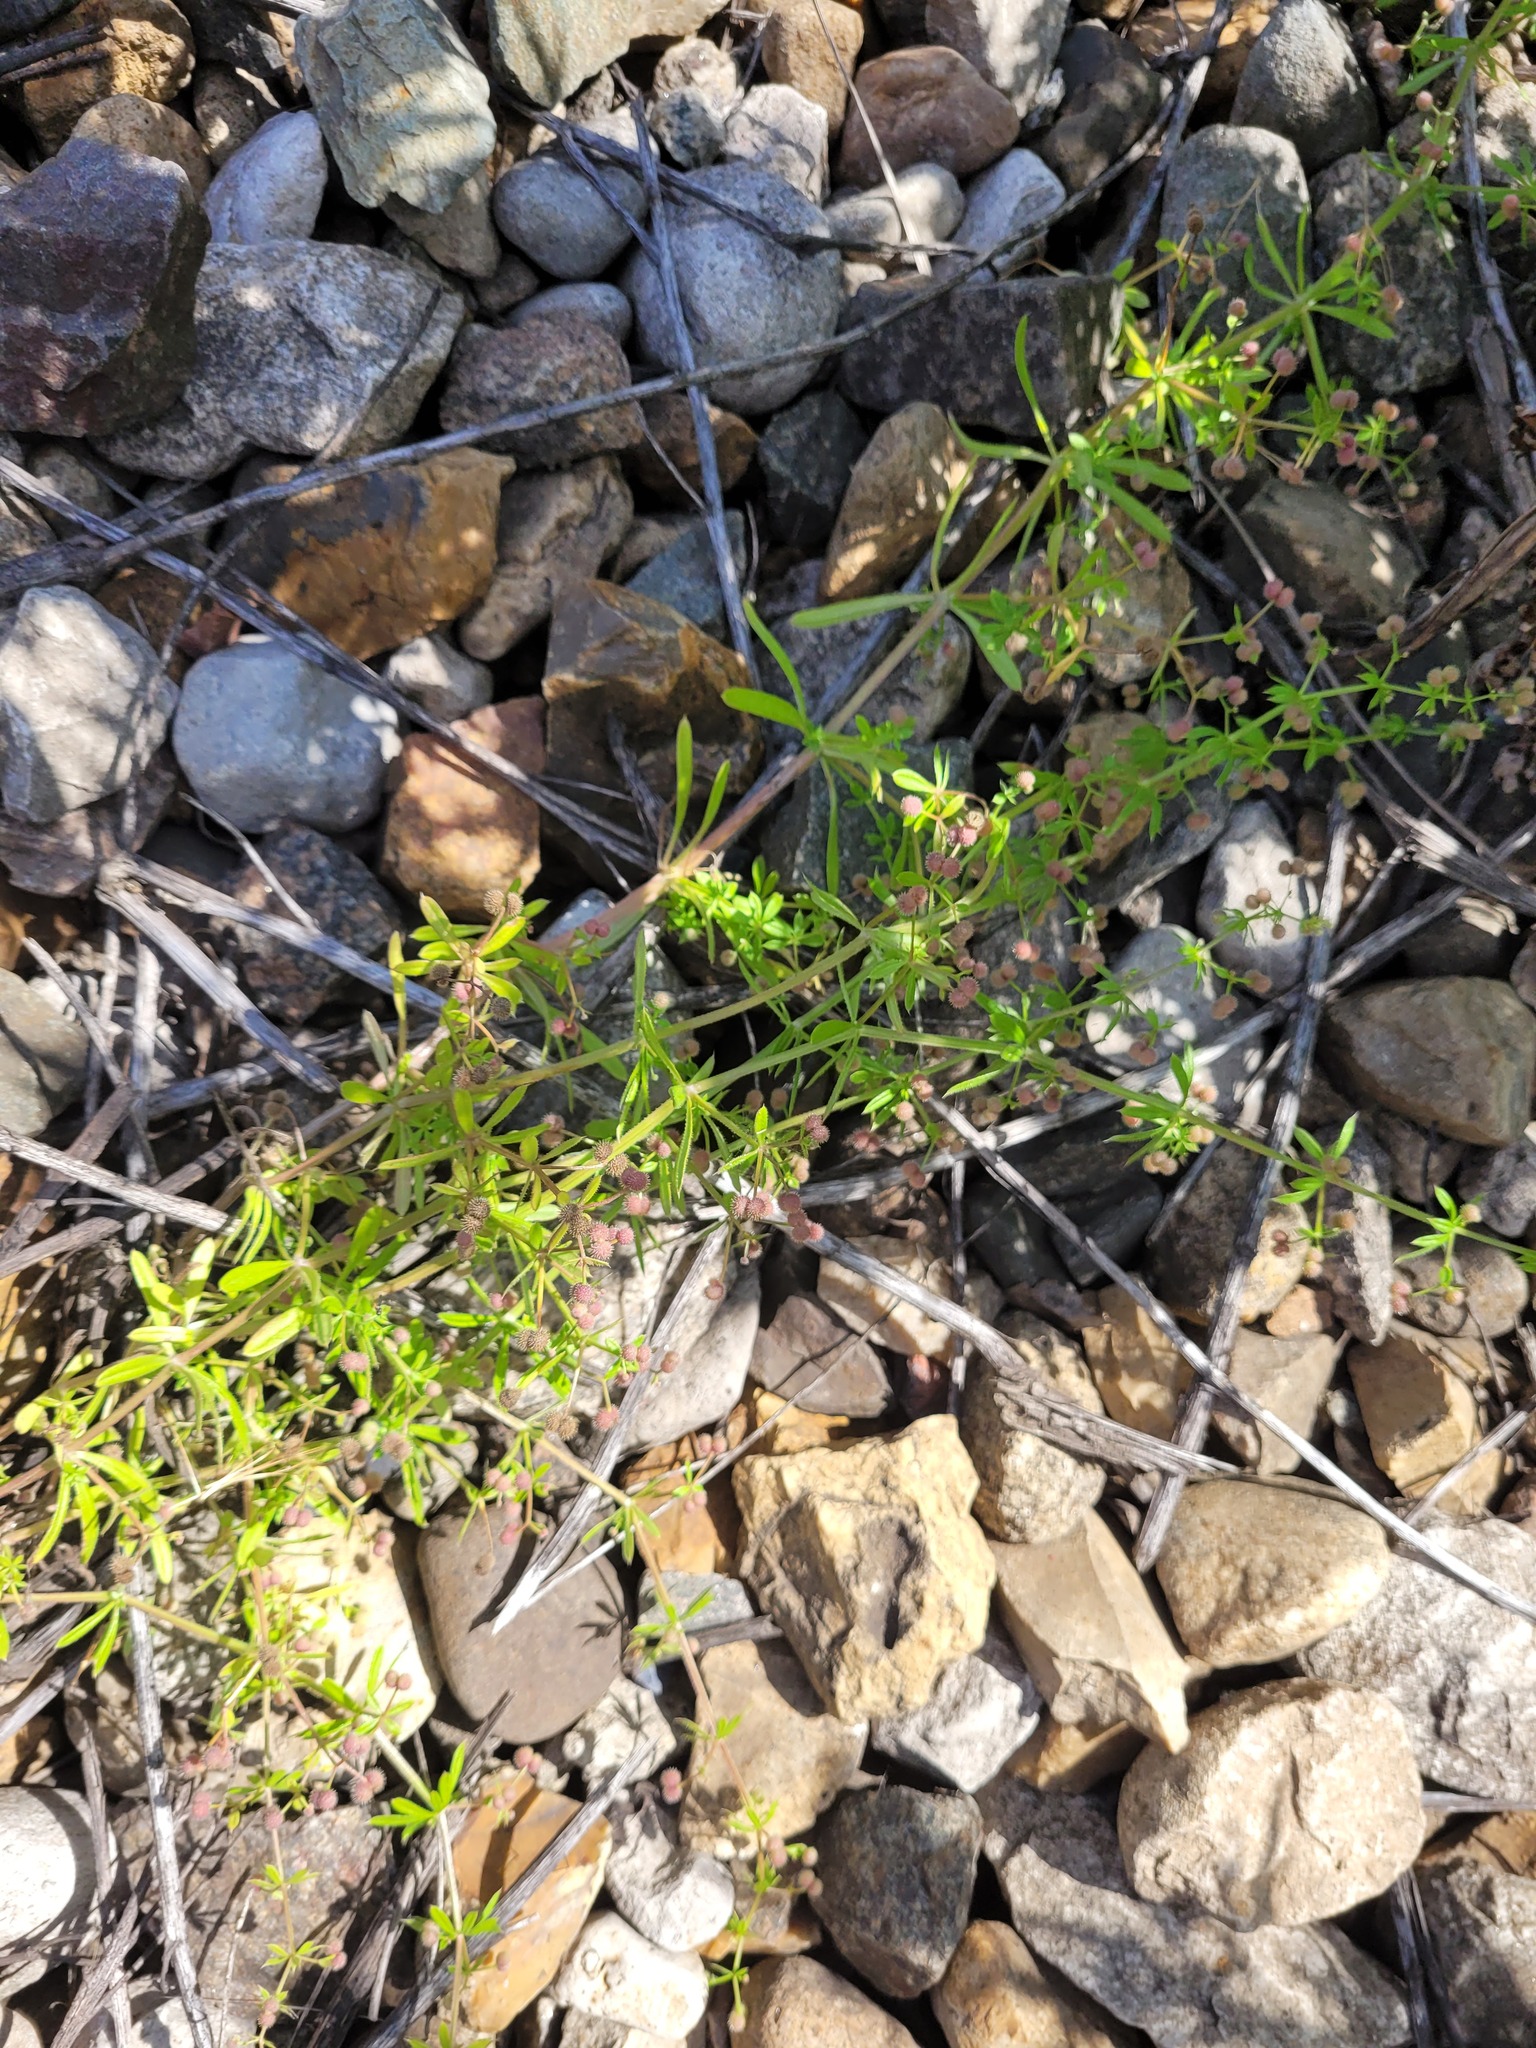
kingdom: Plantae
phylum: Tracheophyta
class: Magnoliopsida
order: Gentianales
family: Rubiaceae
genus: Galium
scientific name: Galium aparine
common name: Cleavers
